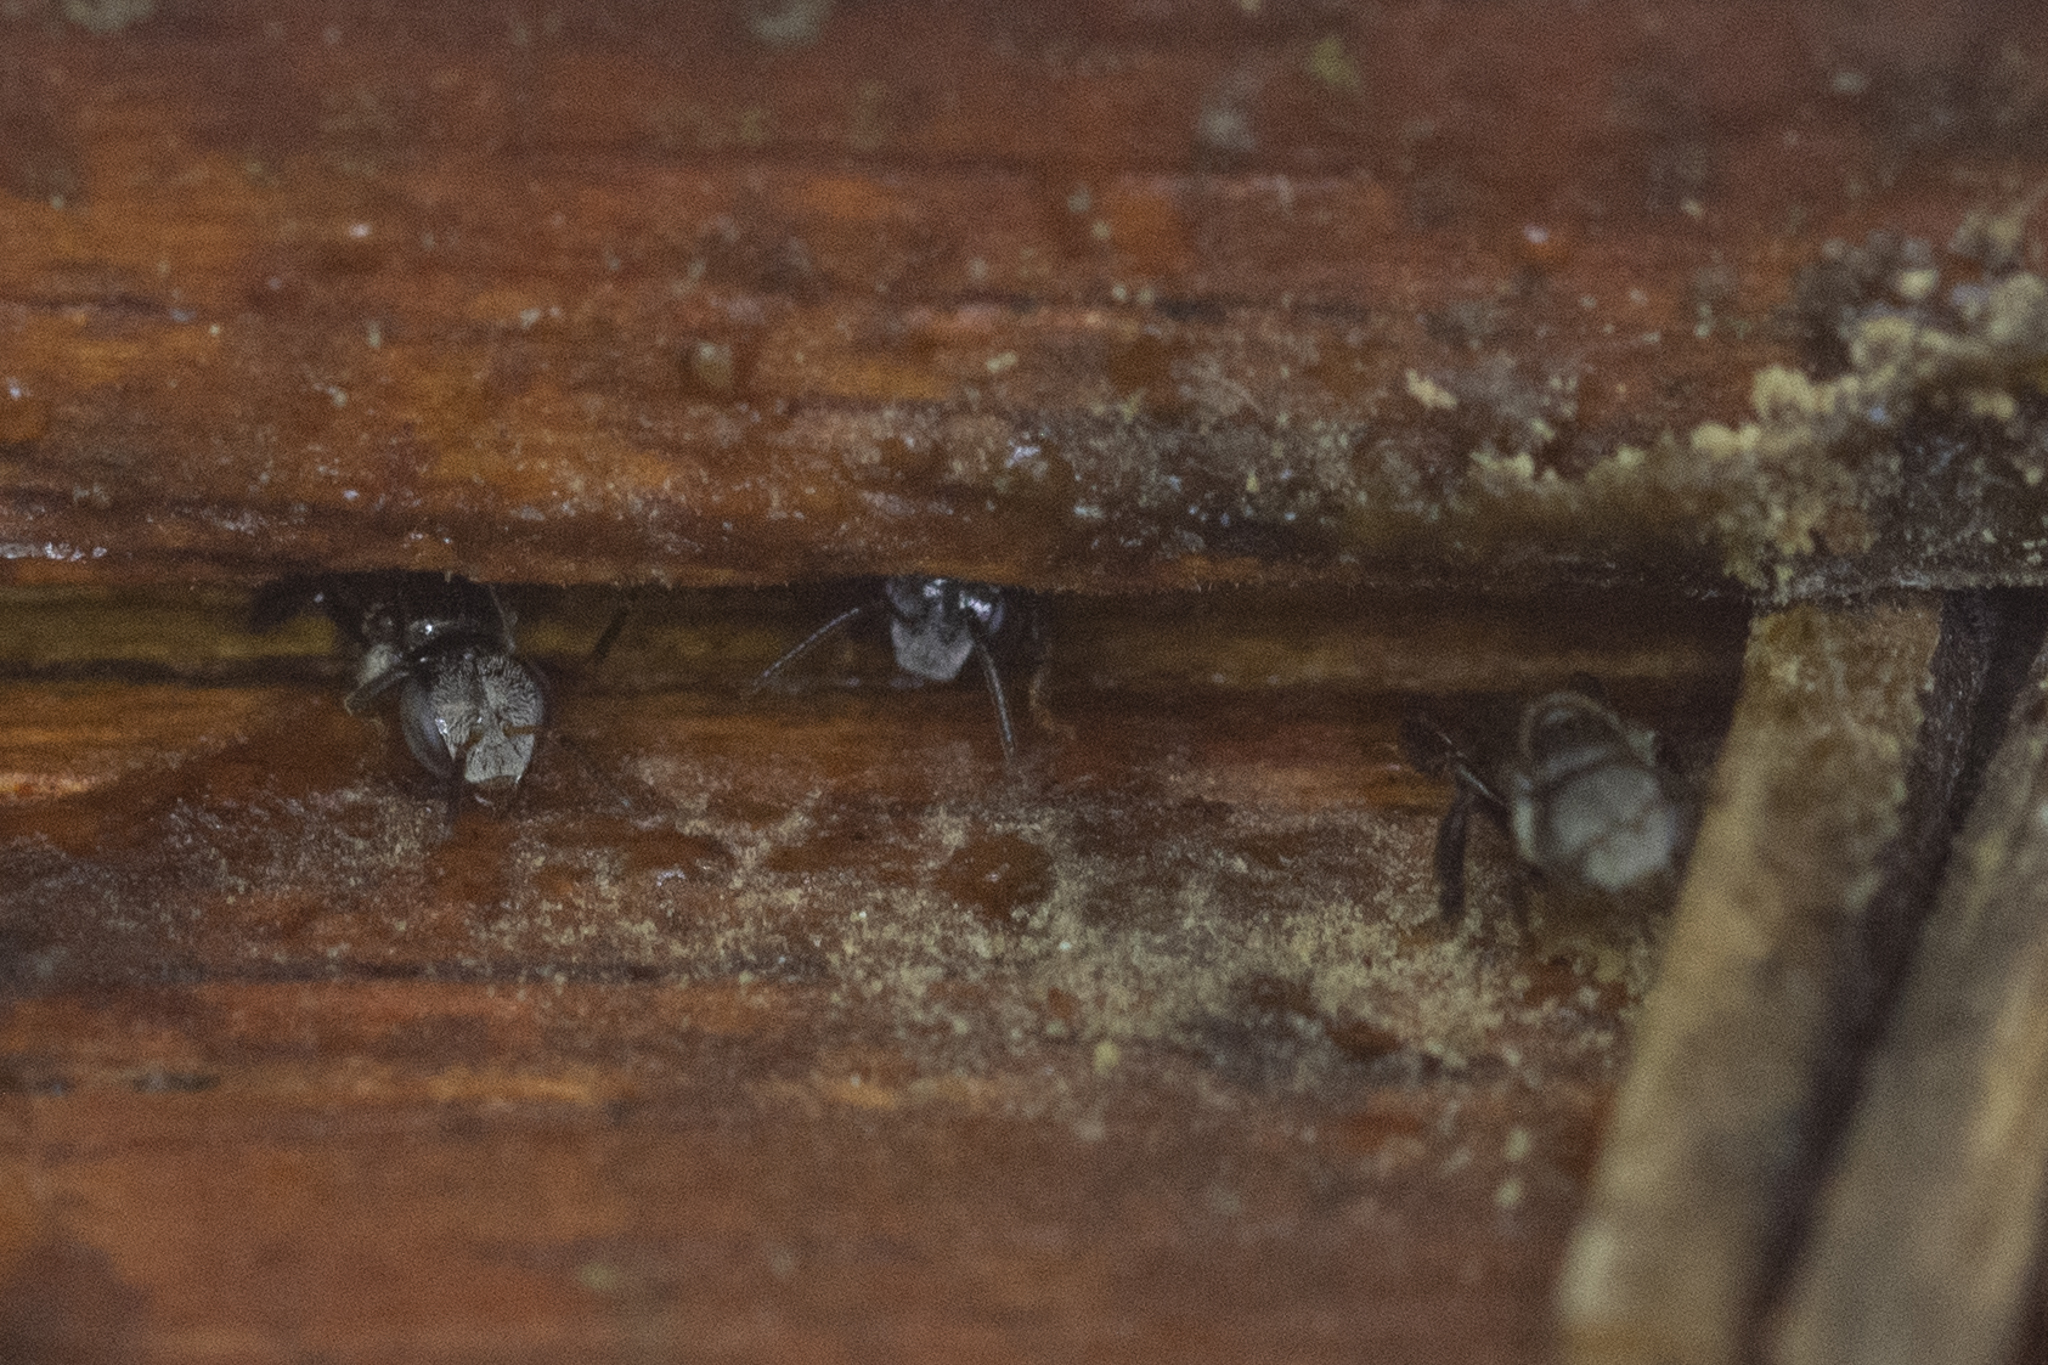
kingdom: Animalia
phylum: Arthropoda
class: Insecta
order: Hymenoptera
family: Apidae
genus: Tetragonula
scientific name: Tetragonula
